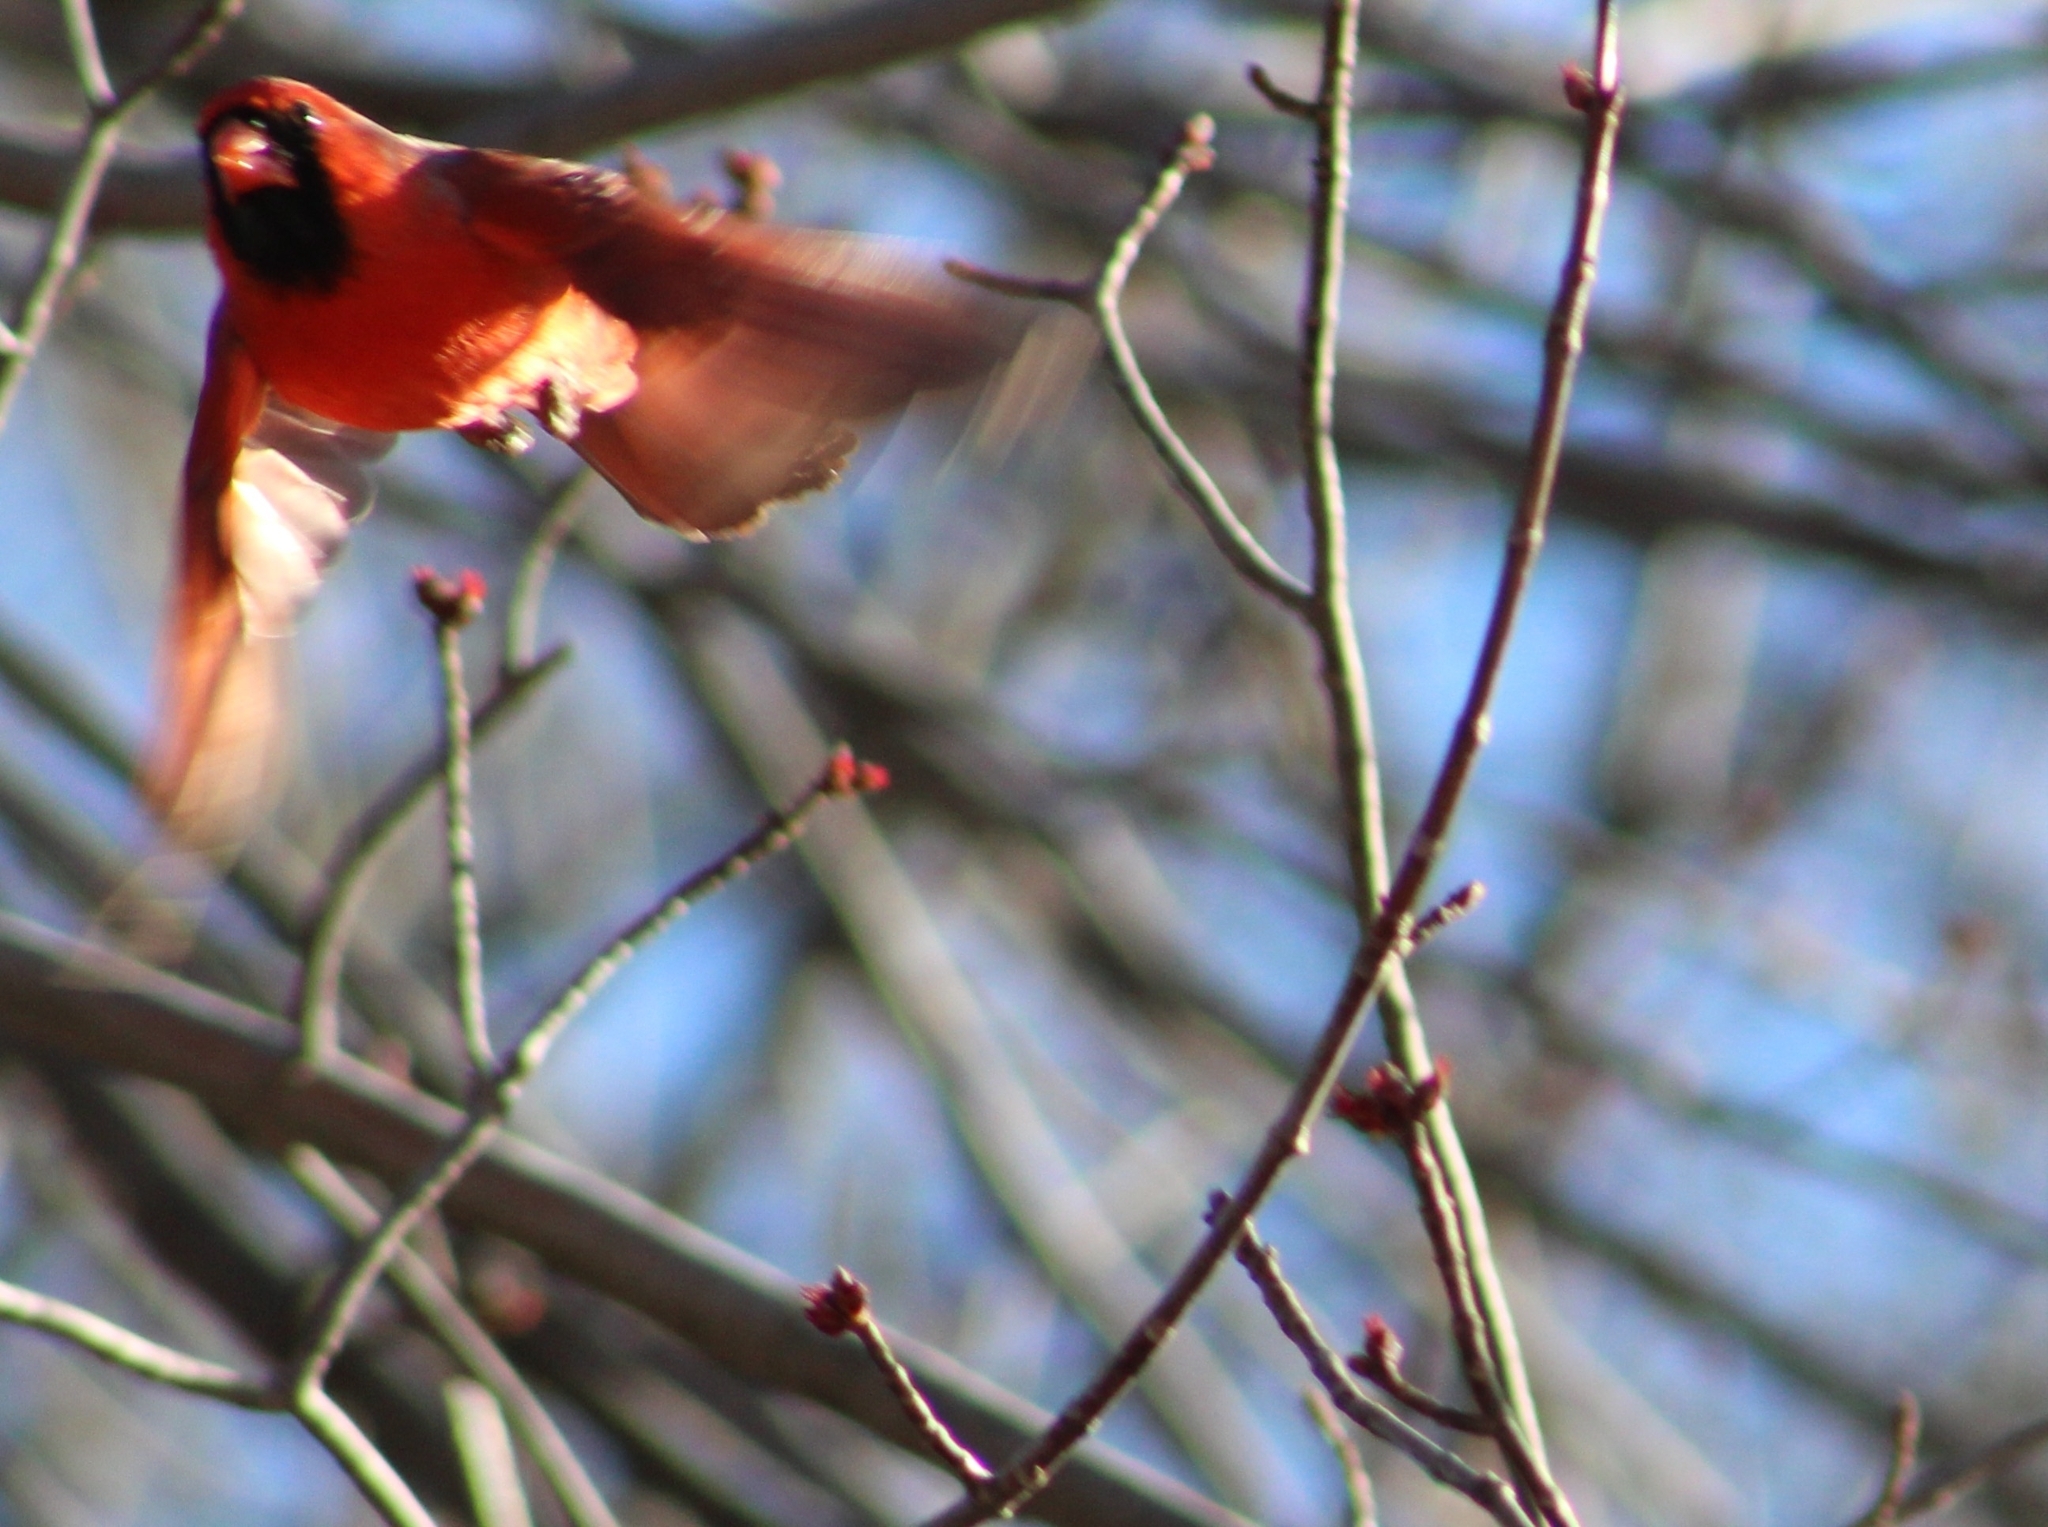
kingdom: Animalia
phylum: Chordata
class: Aves
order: Passeriformes
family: Cardinalidae
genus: Cardinalis
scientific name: Cardinalis cardinalis
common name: Northern cardinal
